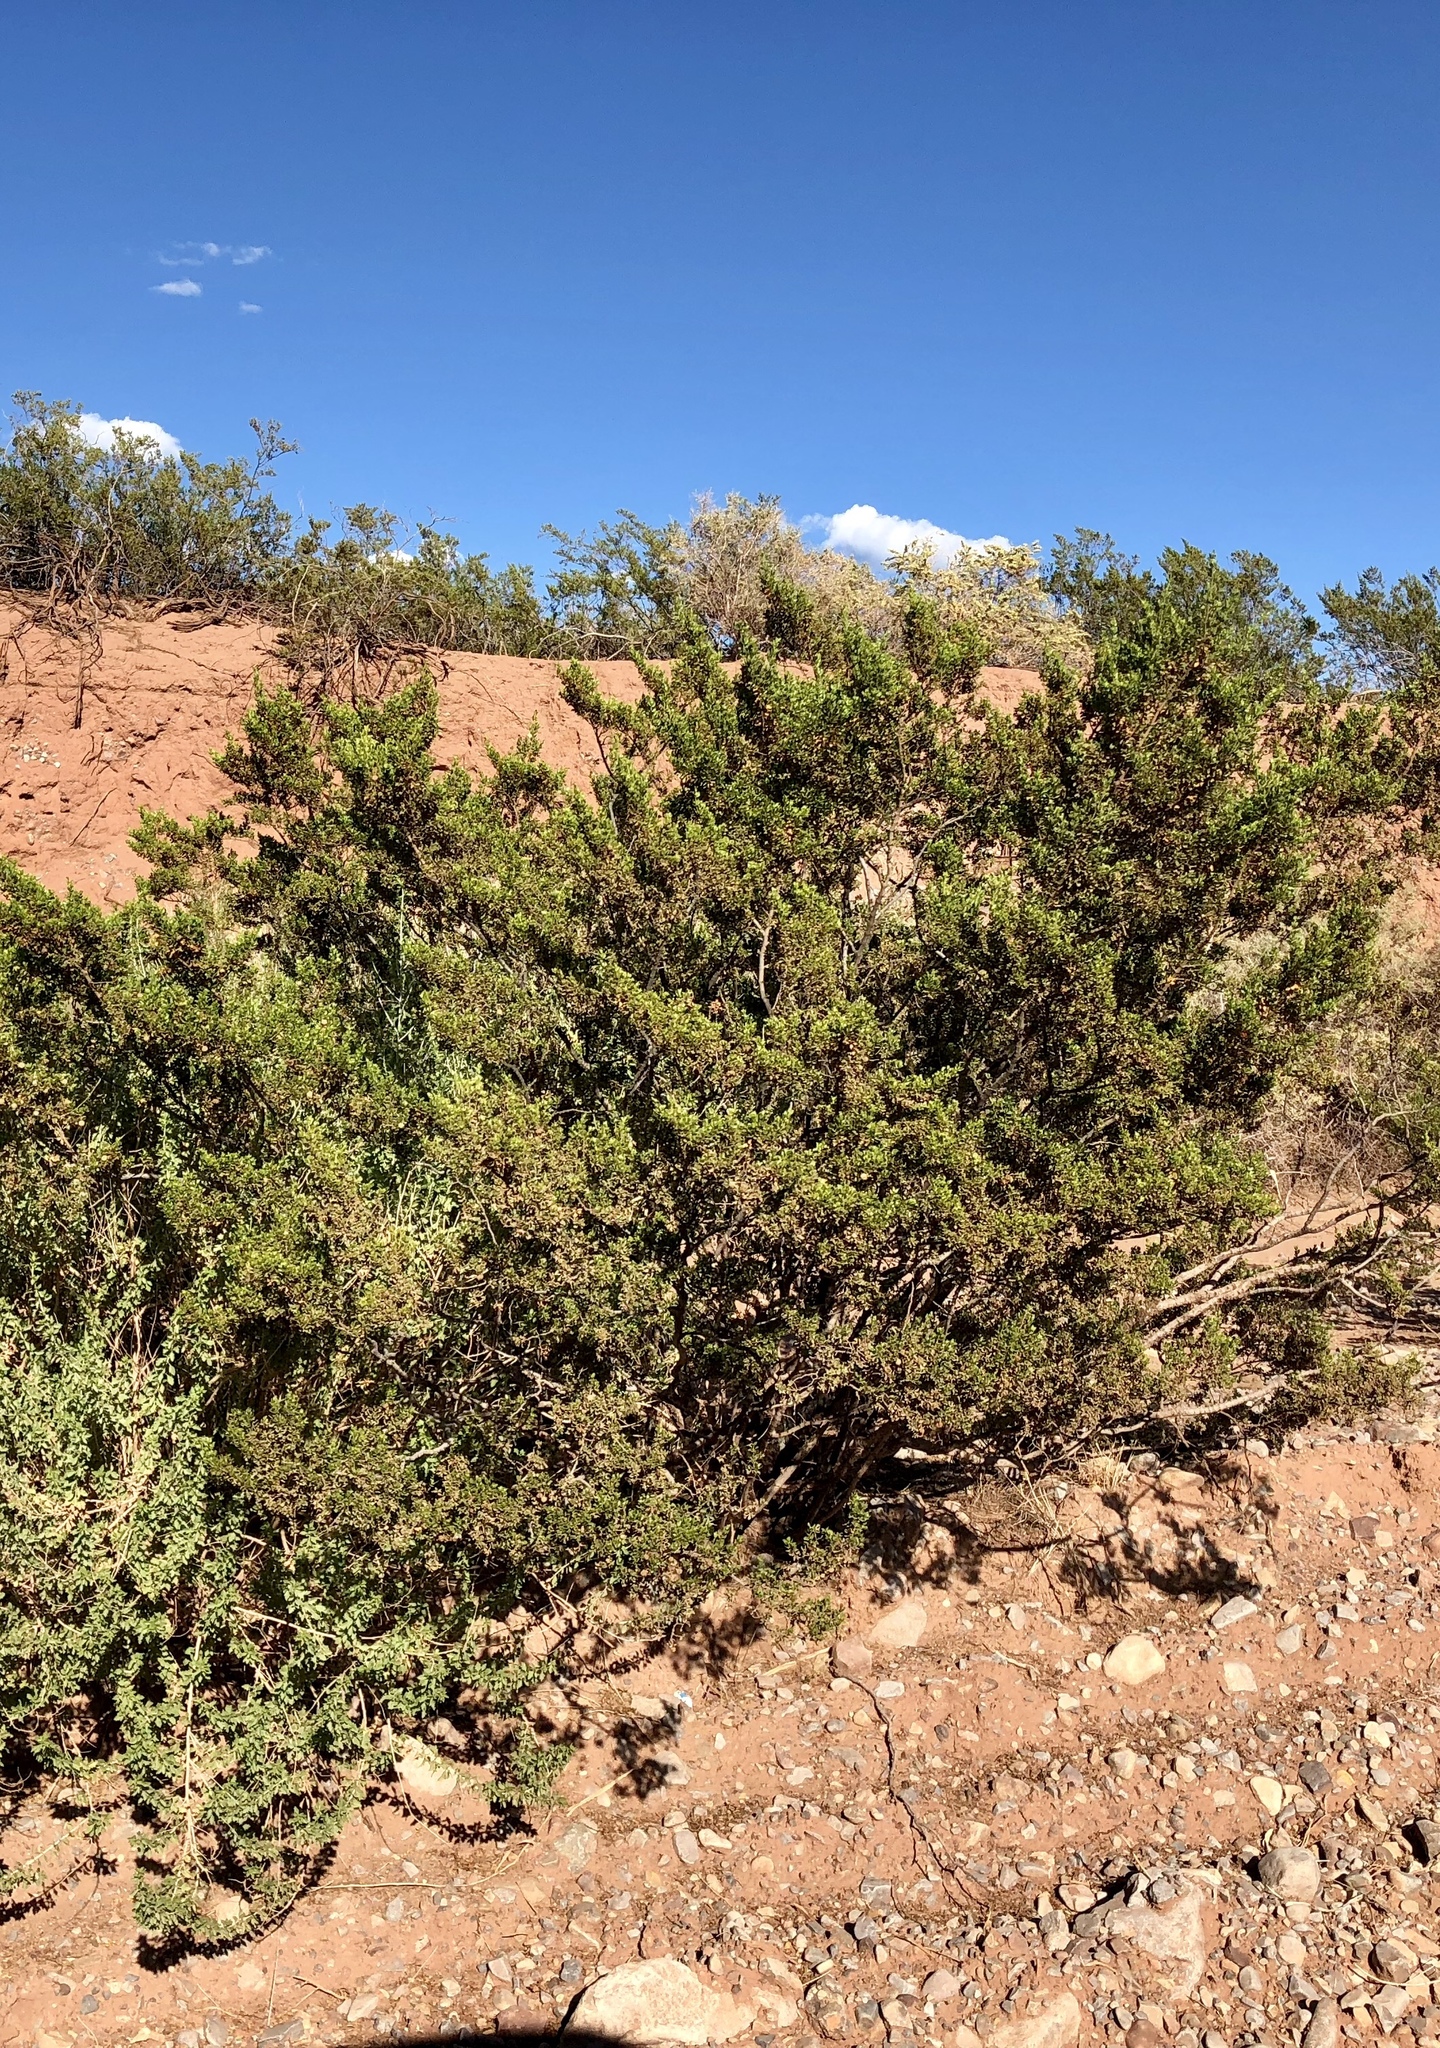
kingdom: Plantae
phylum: Tracheophyta
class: Magnoliopsida
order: Zygophyllales
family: Zygophyllaceae
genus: Larrea
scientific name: Larrea tridentata
